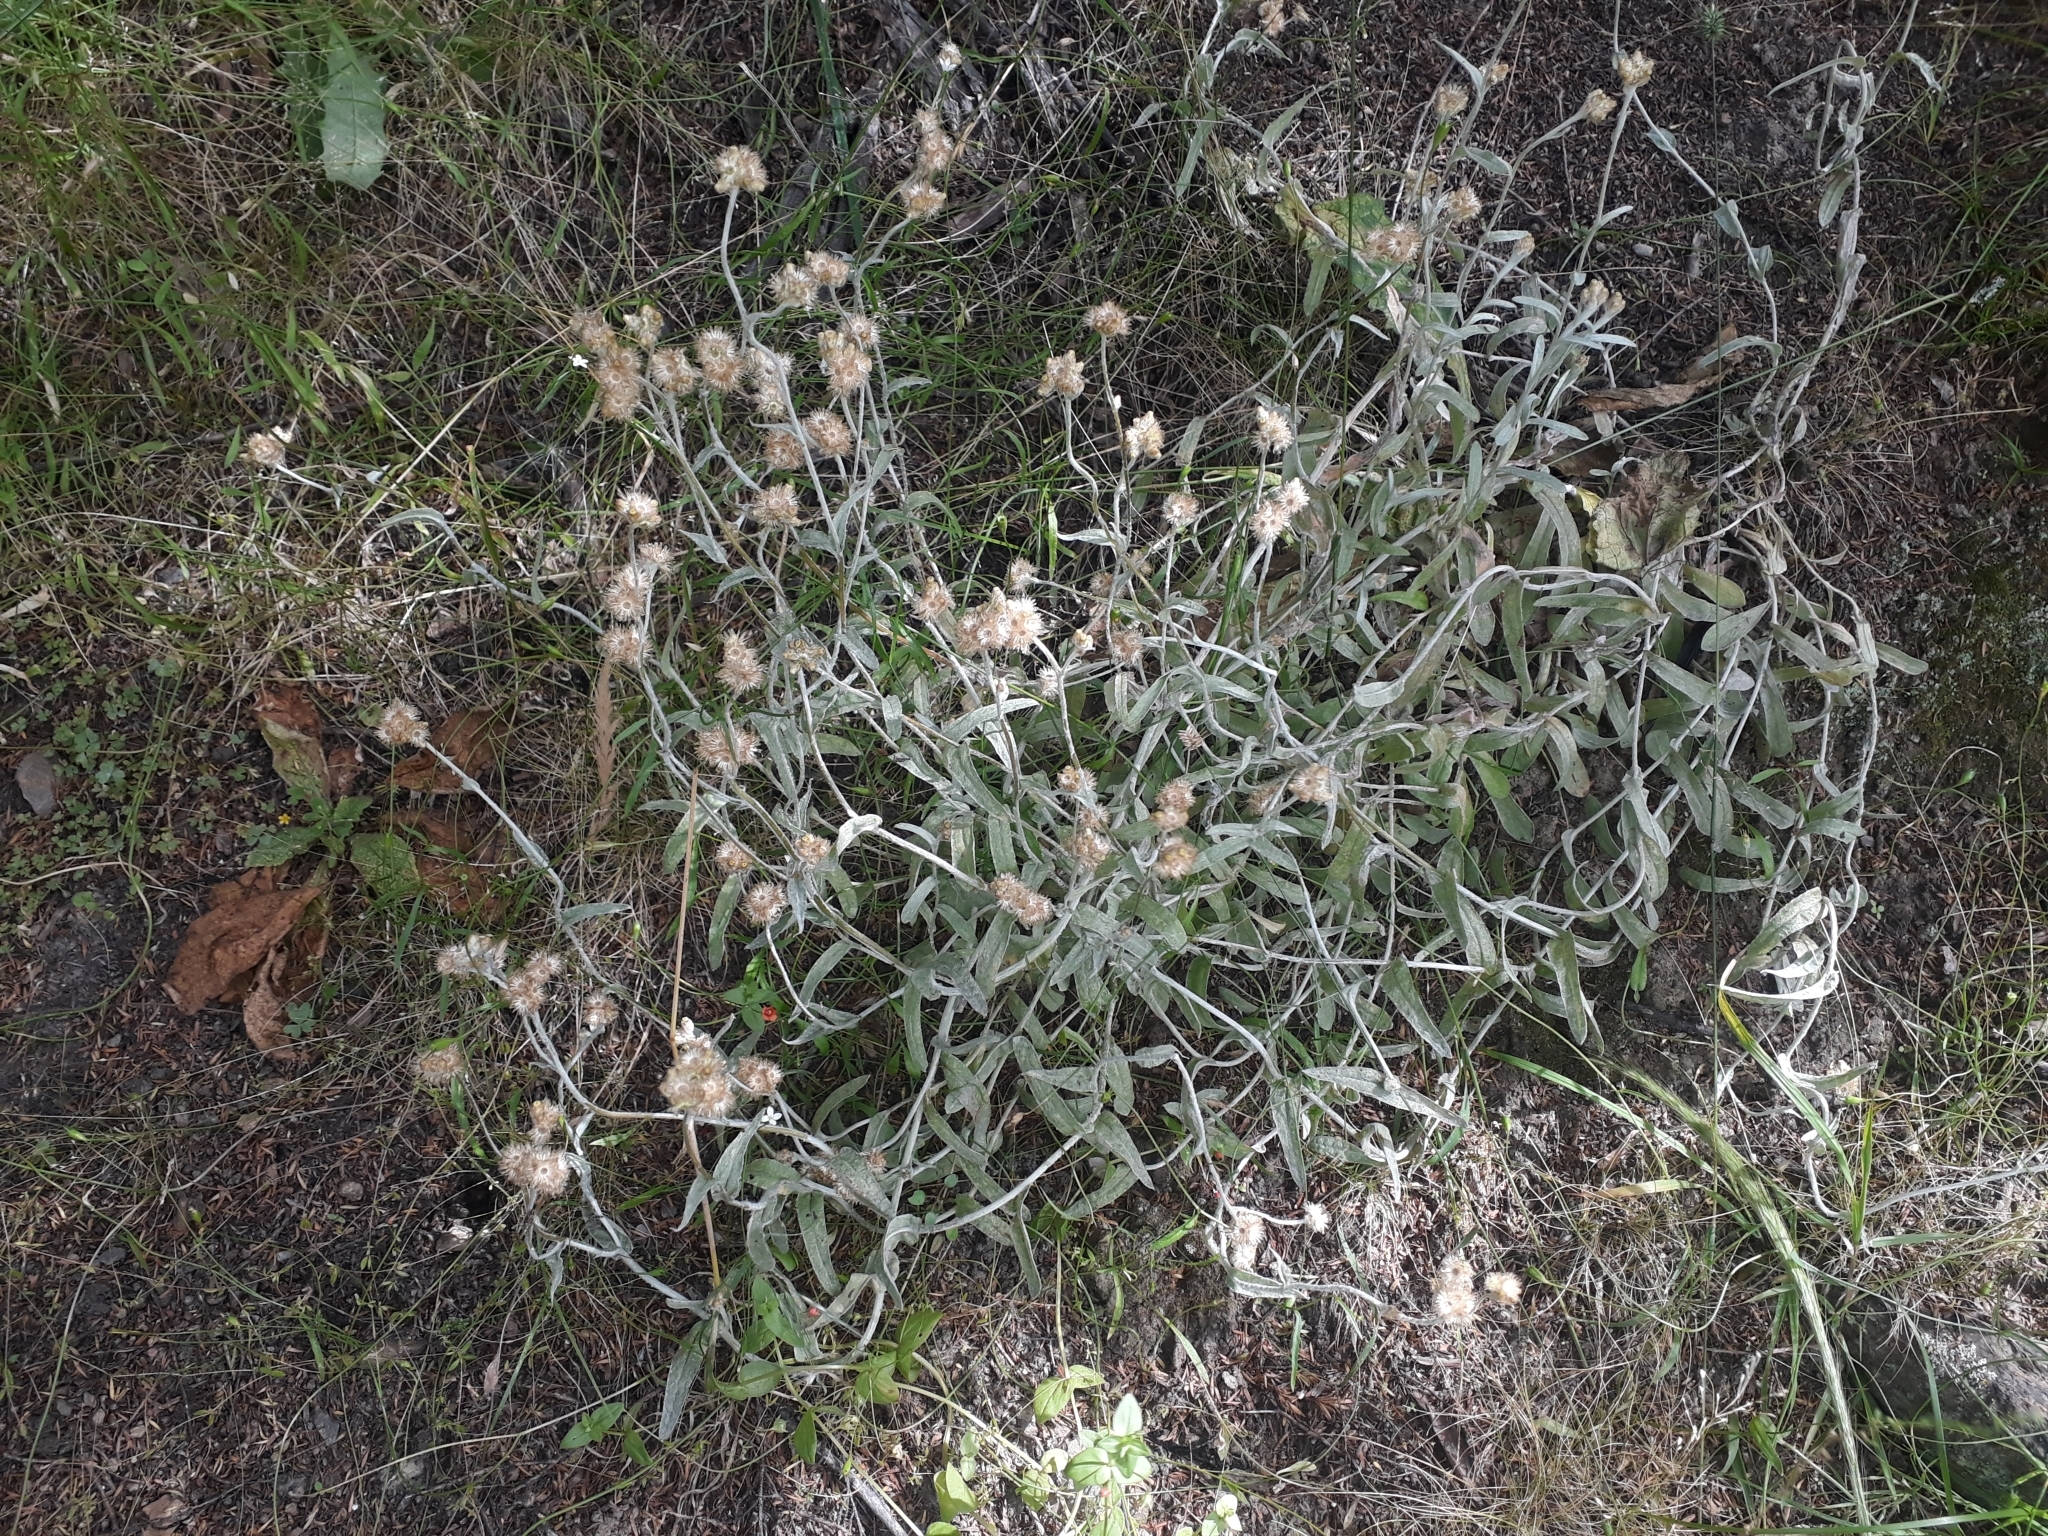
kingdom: Plantae
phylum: Tracheophyta
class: Magnoliopsida
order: Asterales
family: Asteraceae
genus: Helichrysum
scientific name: Helichrysum luteoalbum
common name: Daisy
